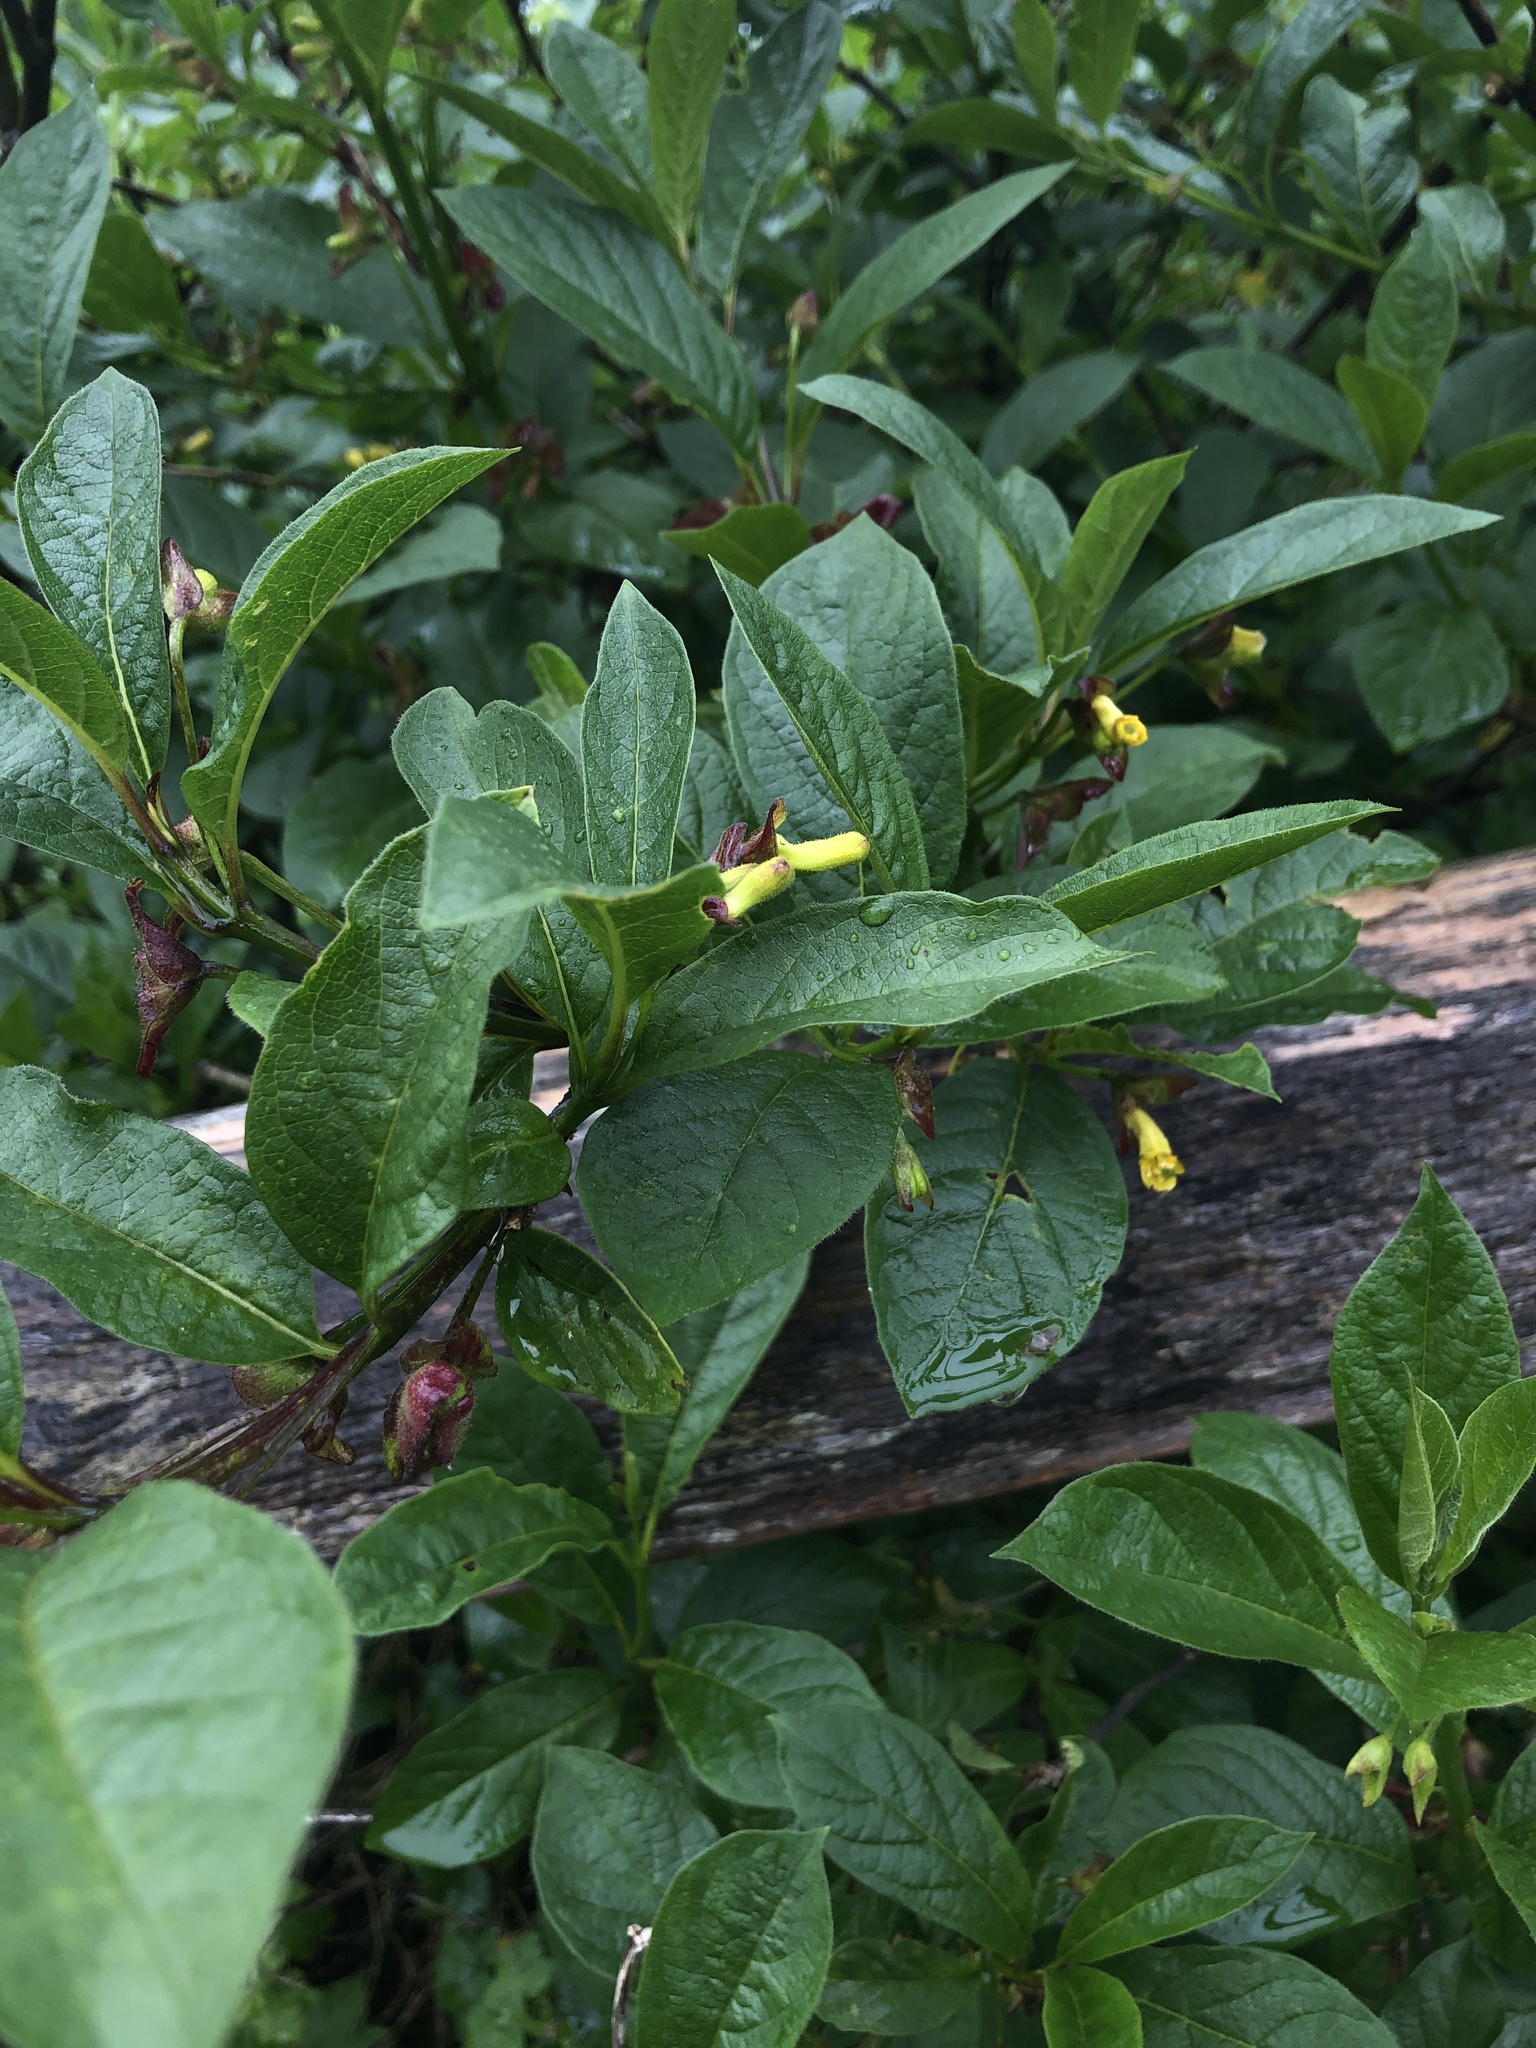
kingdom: Plantae
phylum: Tracheophyta
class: Magnoliopsida
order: Dipsacales
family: Caprifoliaceae
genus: Lonicera
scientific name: Lonicera involucrata
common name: Californian honeysuckle
